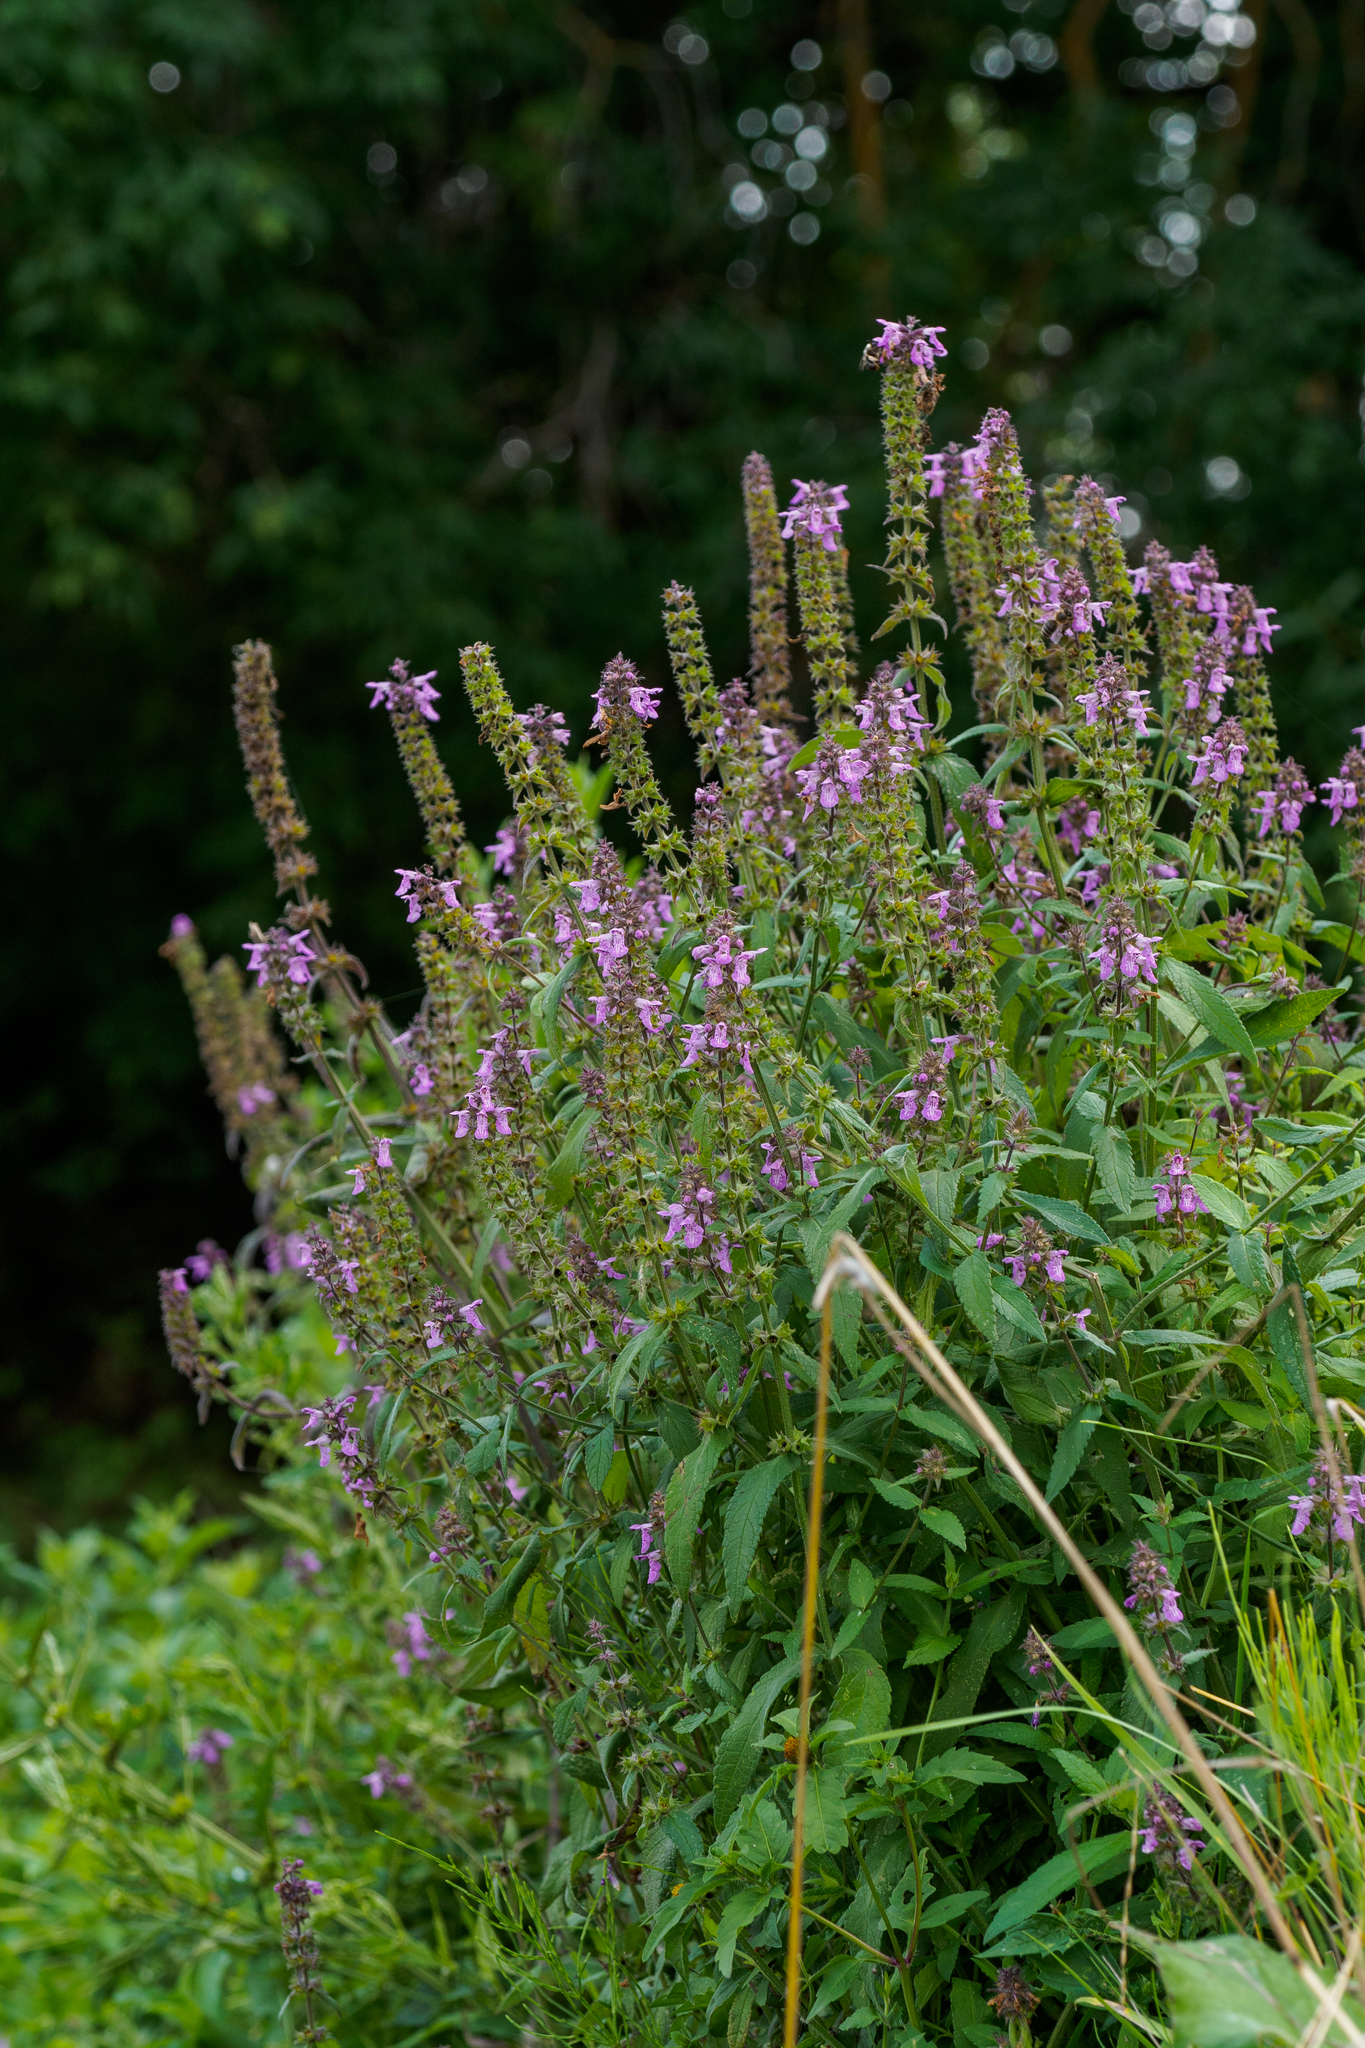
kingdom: Plantae
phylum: Tracheophyta
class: Magnoliopsida
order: Lamiales
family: Lamiaceae
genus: Stachys
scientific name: Stachys palustris
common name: Marsh woundwort
